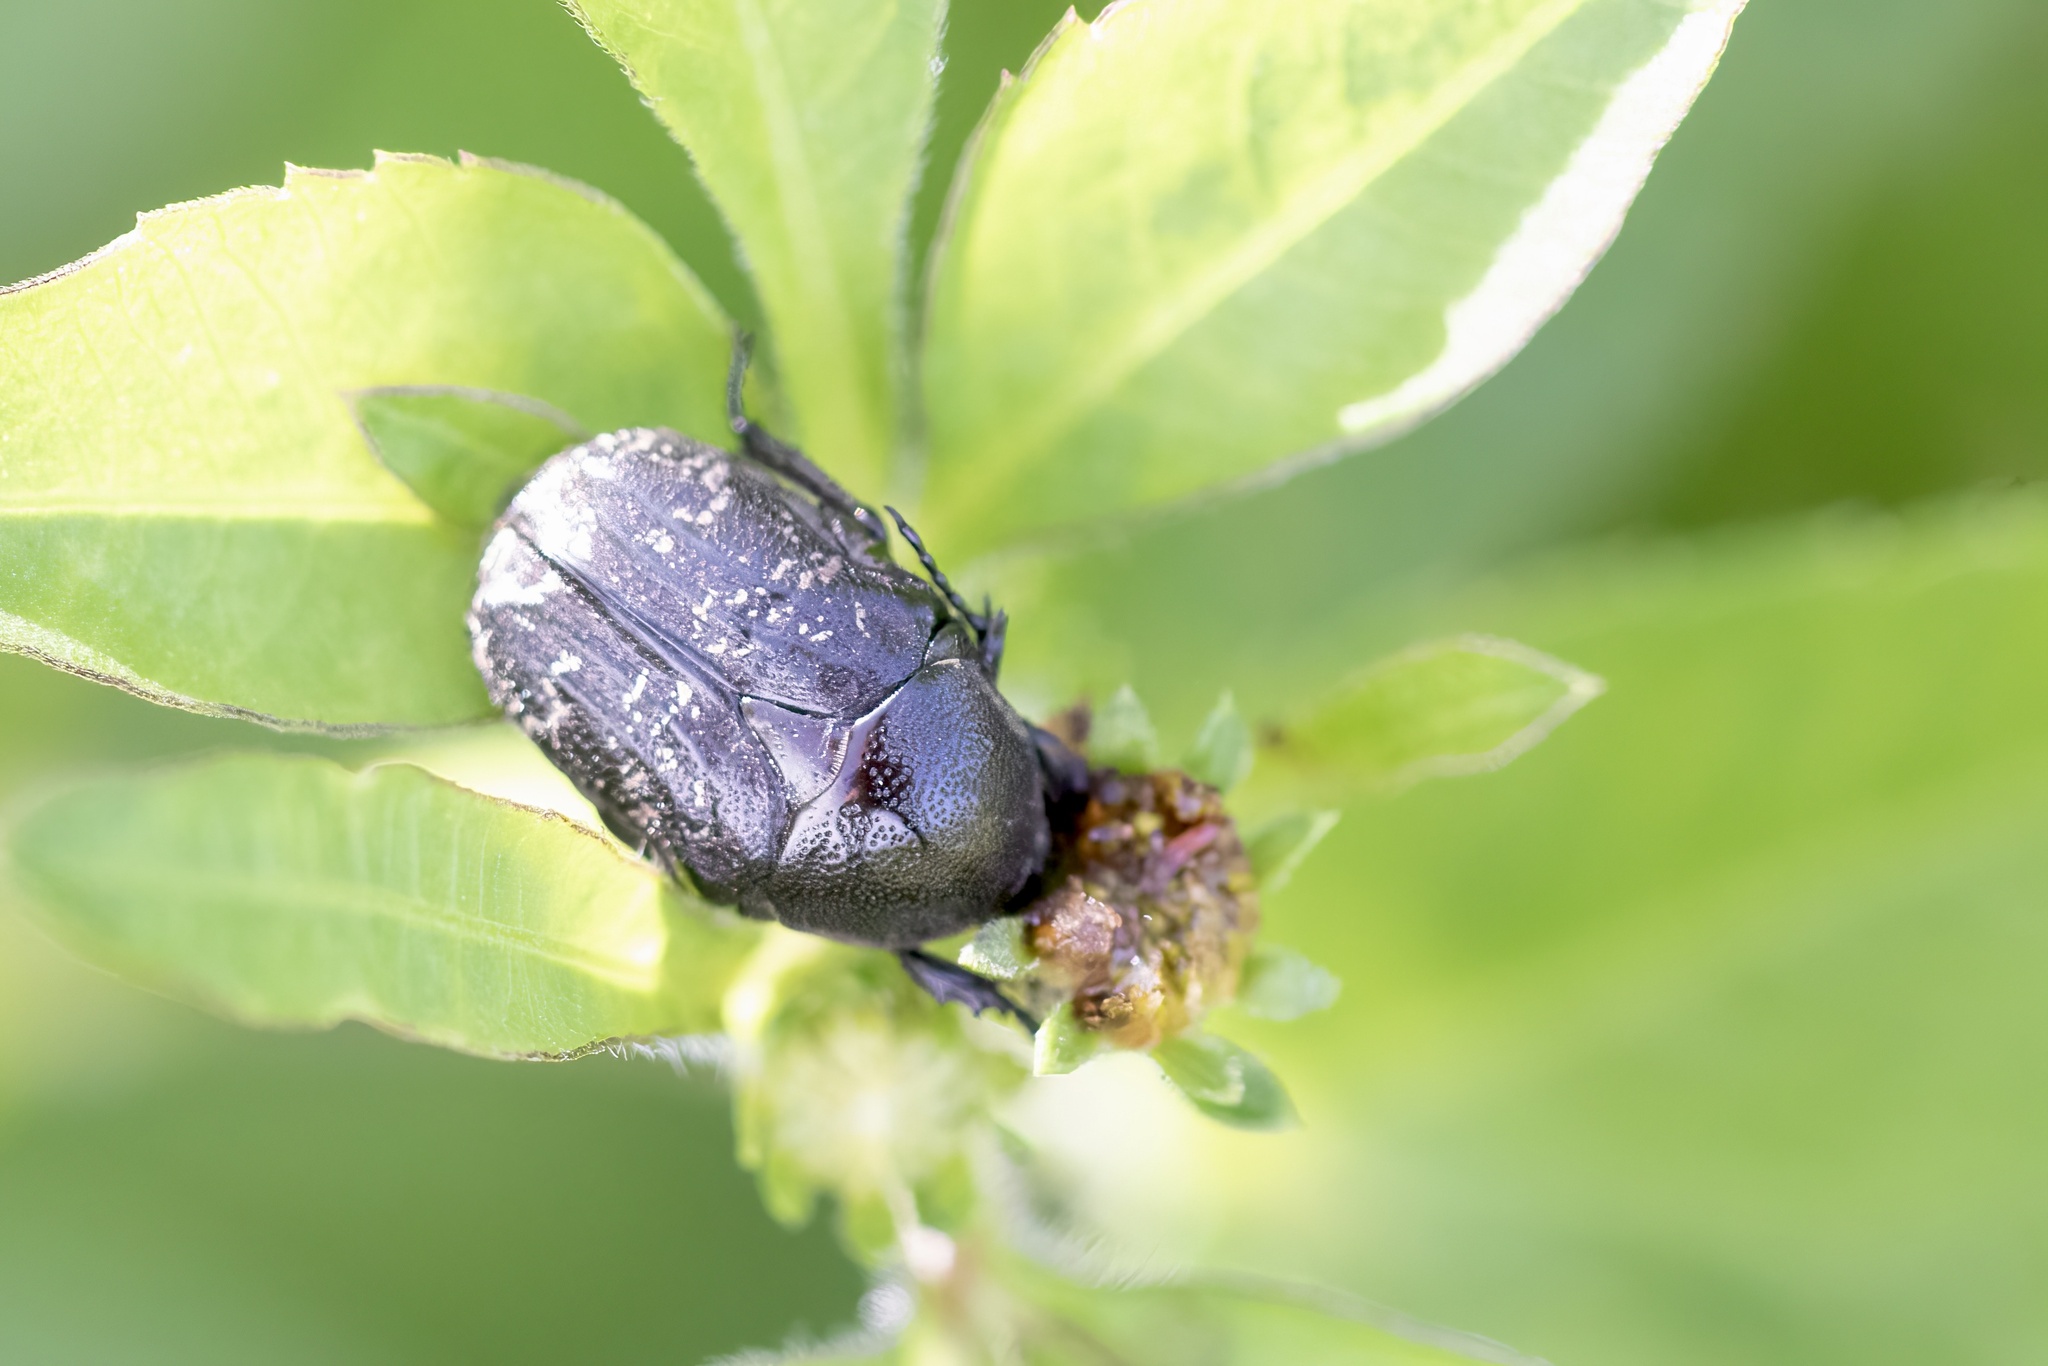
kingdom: Animalia
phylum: Arthropoda
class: Insecta
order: Coleoptera
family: Scarabaeidae
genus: Euphoria
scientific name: Euphoria sepulcralis
